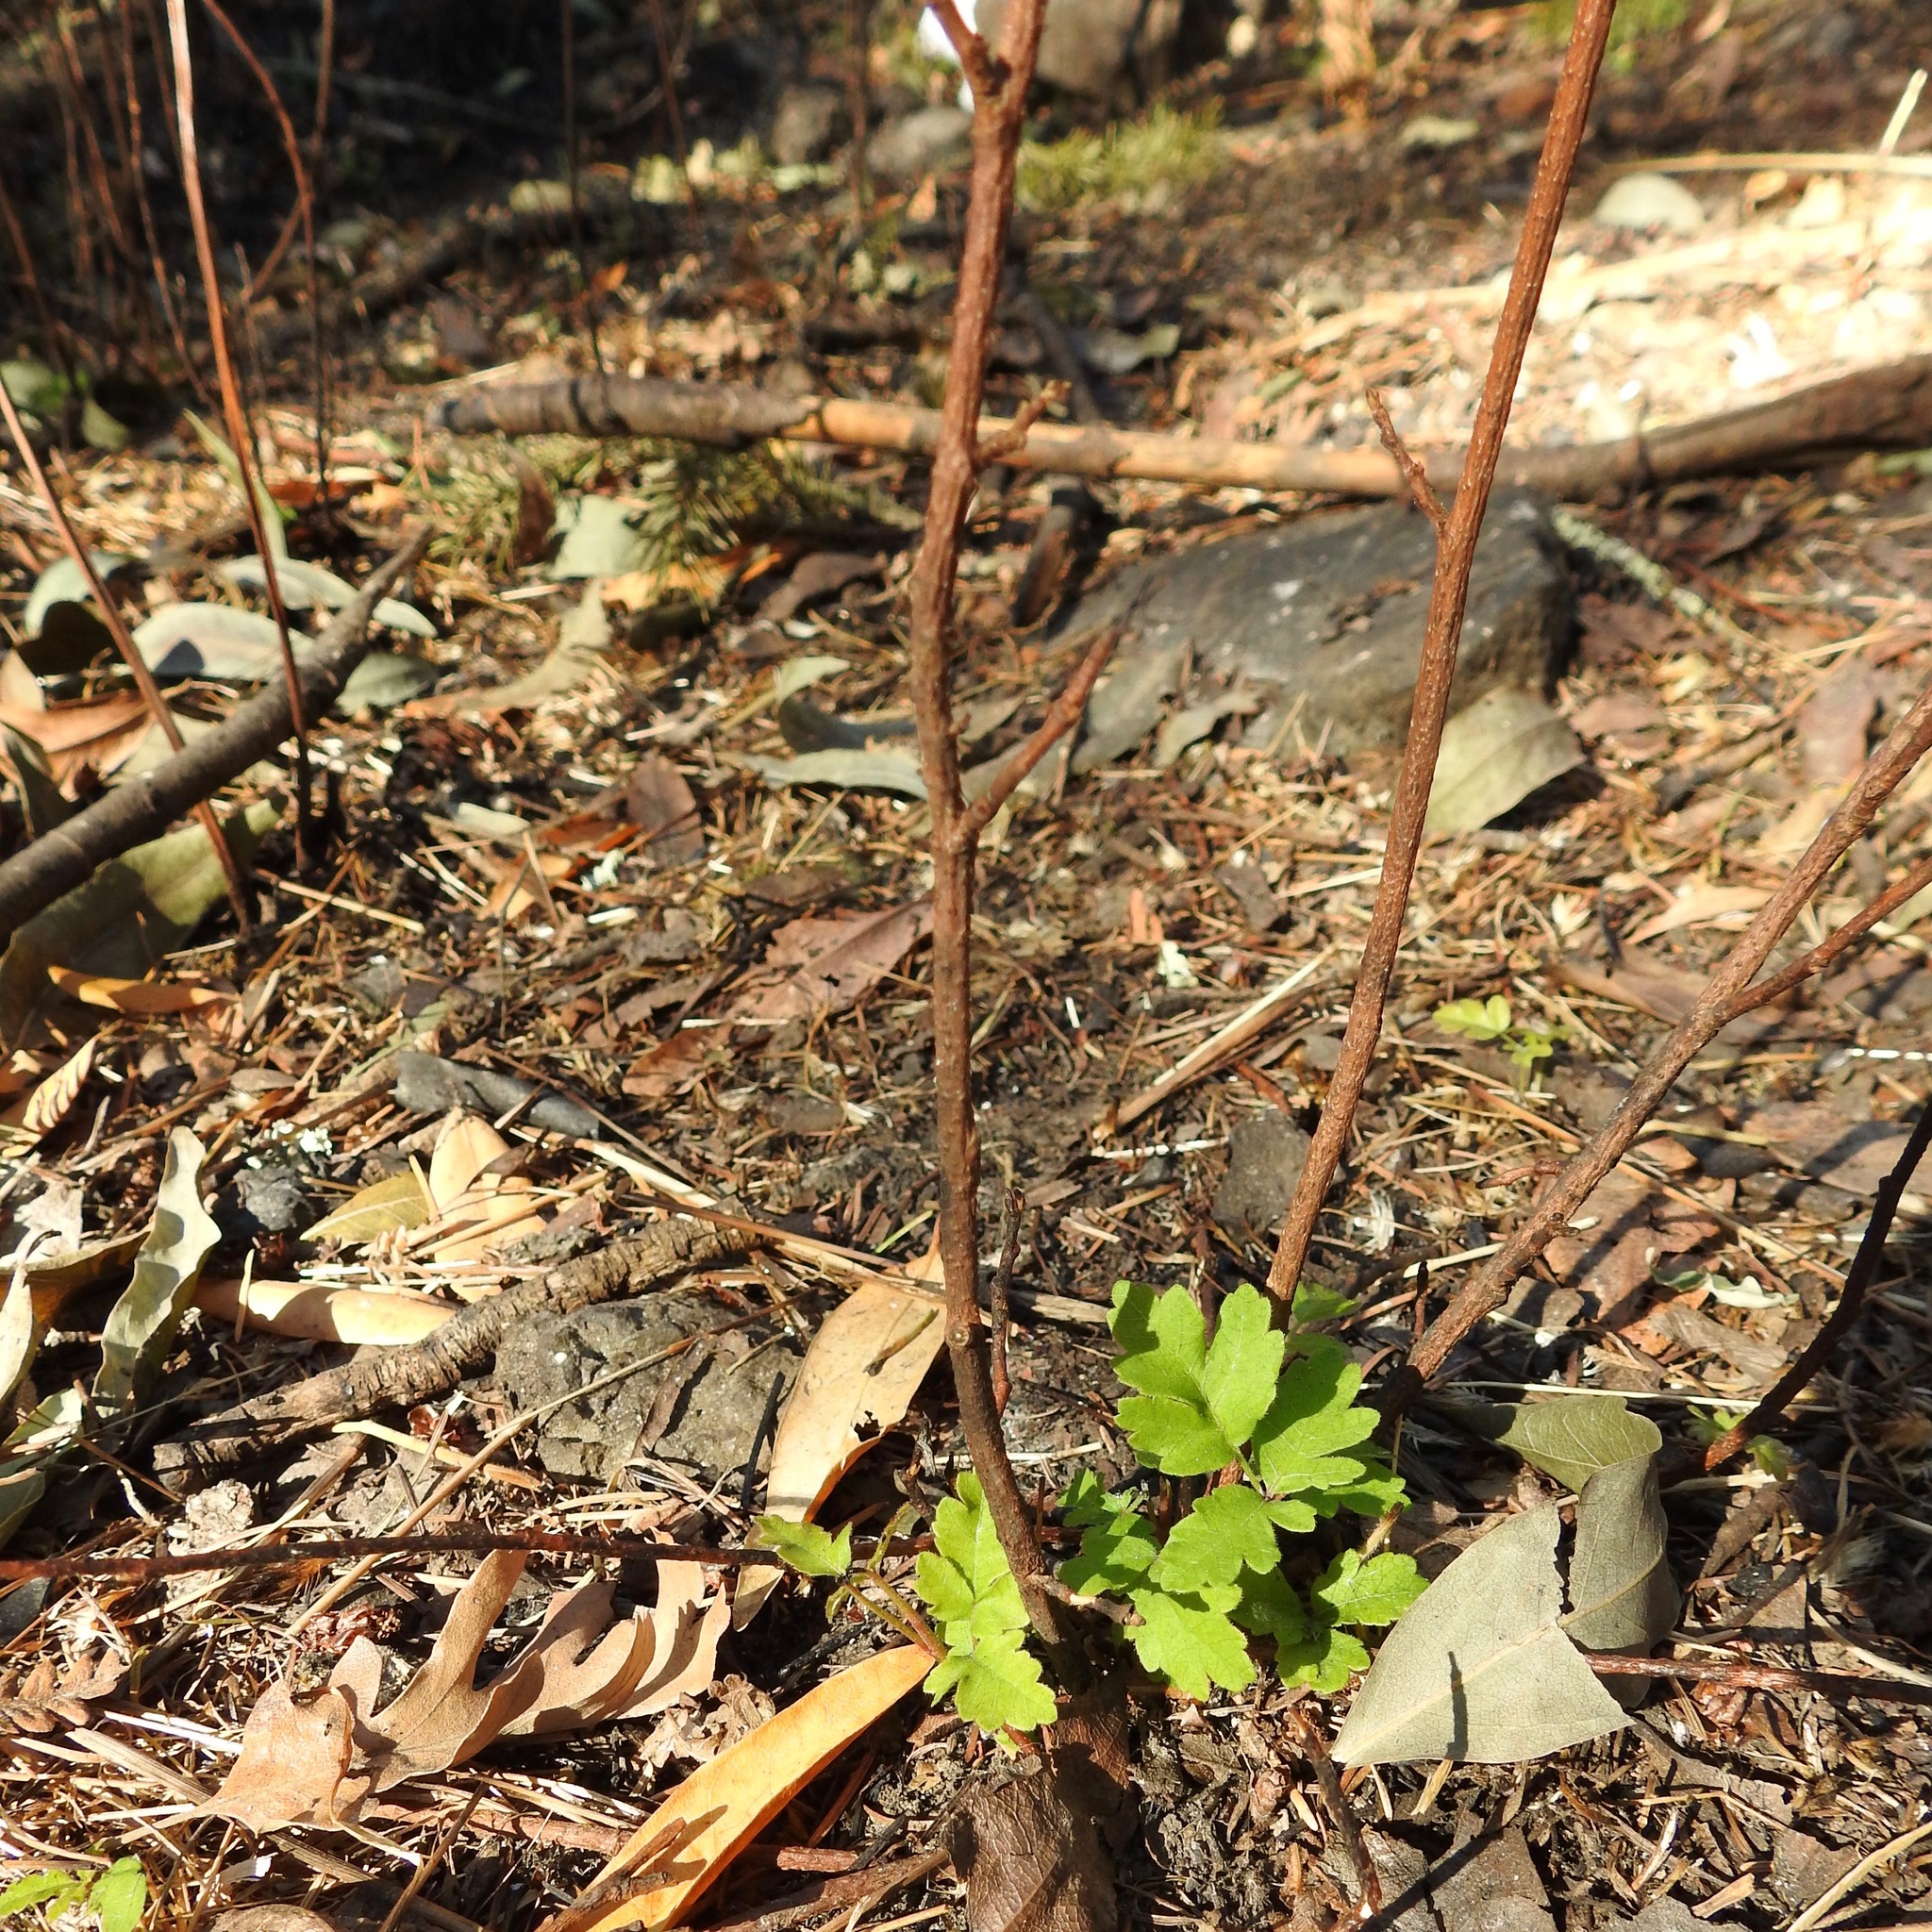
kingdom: Plantae
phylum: Tracheophyta
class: Magnoliopsida
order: Sapindales
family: Anacardiaceae
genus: Toxicodendron
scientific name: Toxicodendron diversilobum
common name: Pacific poison-oak
